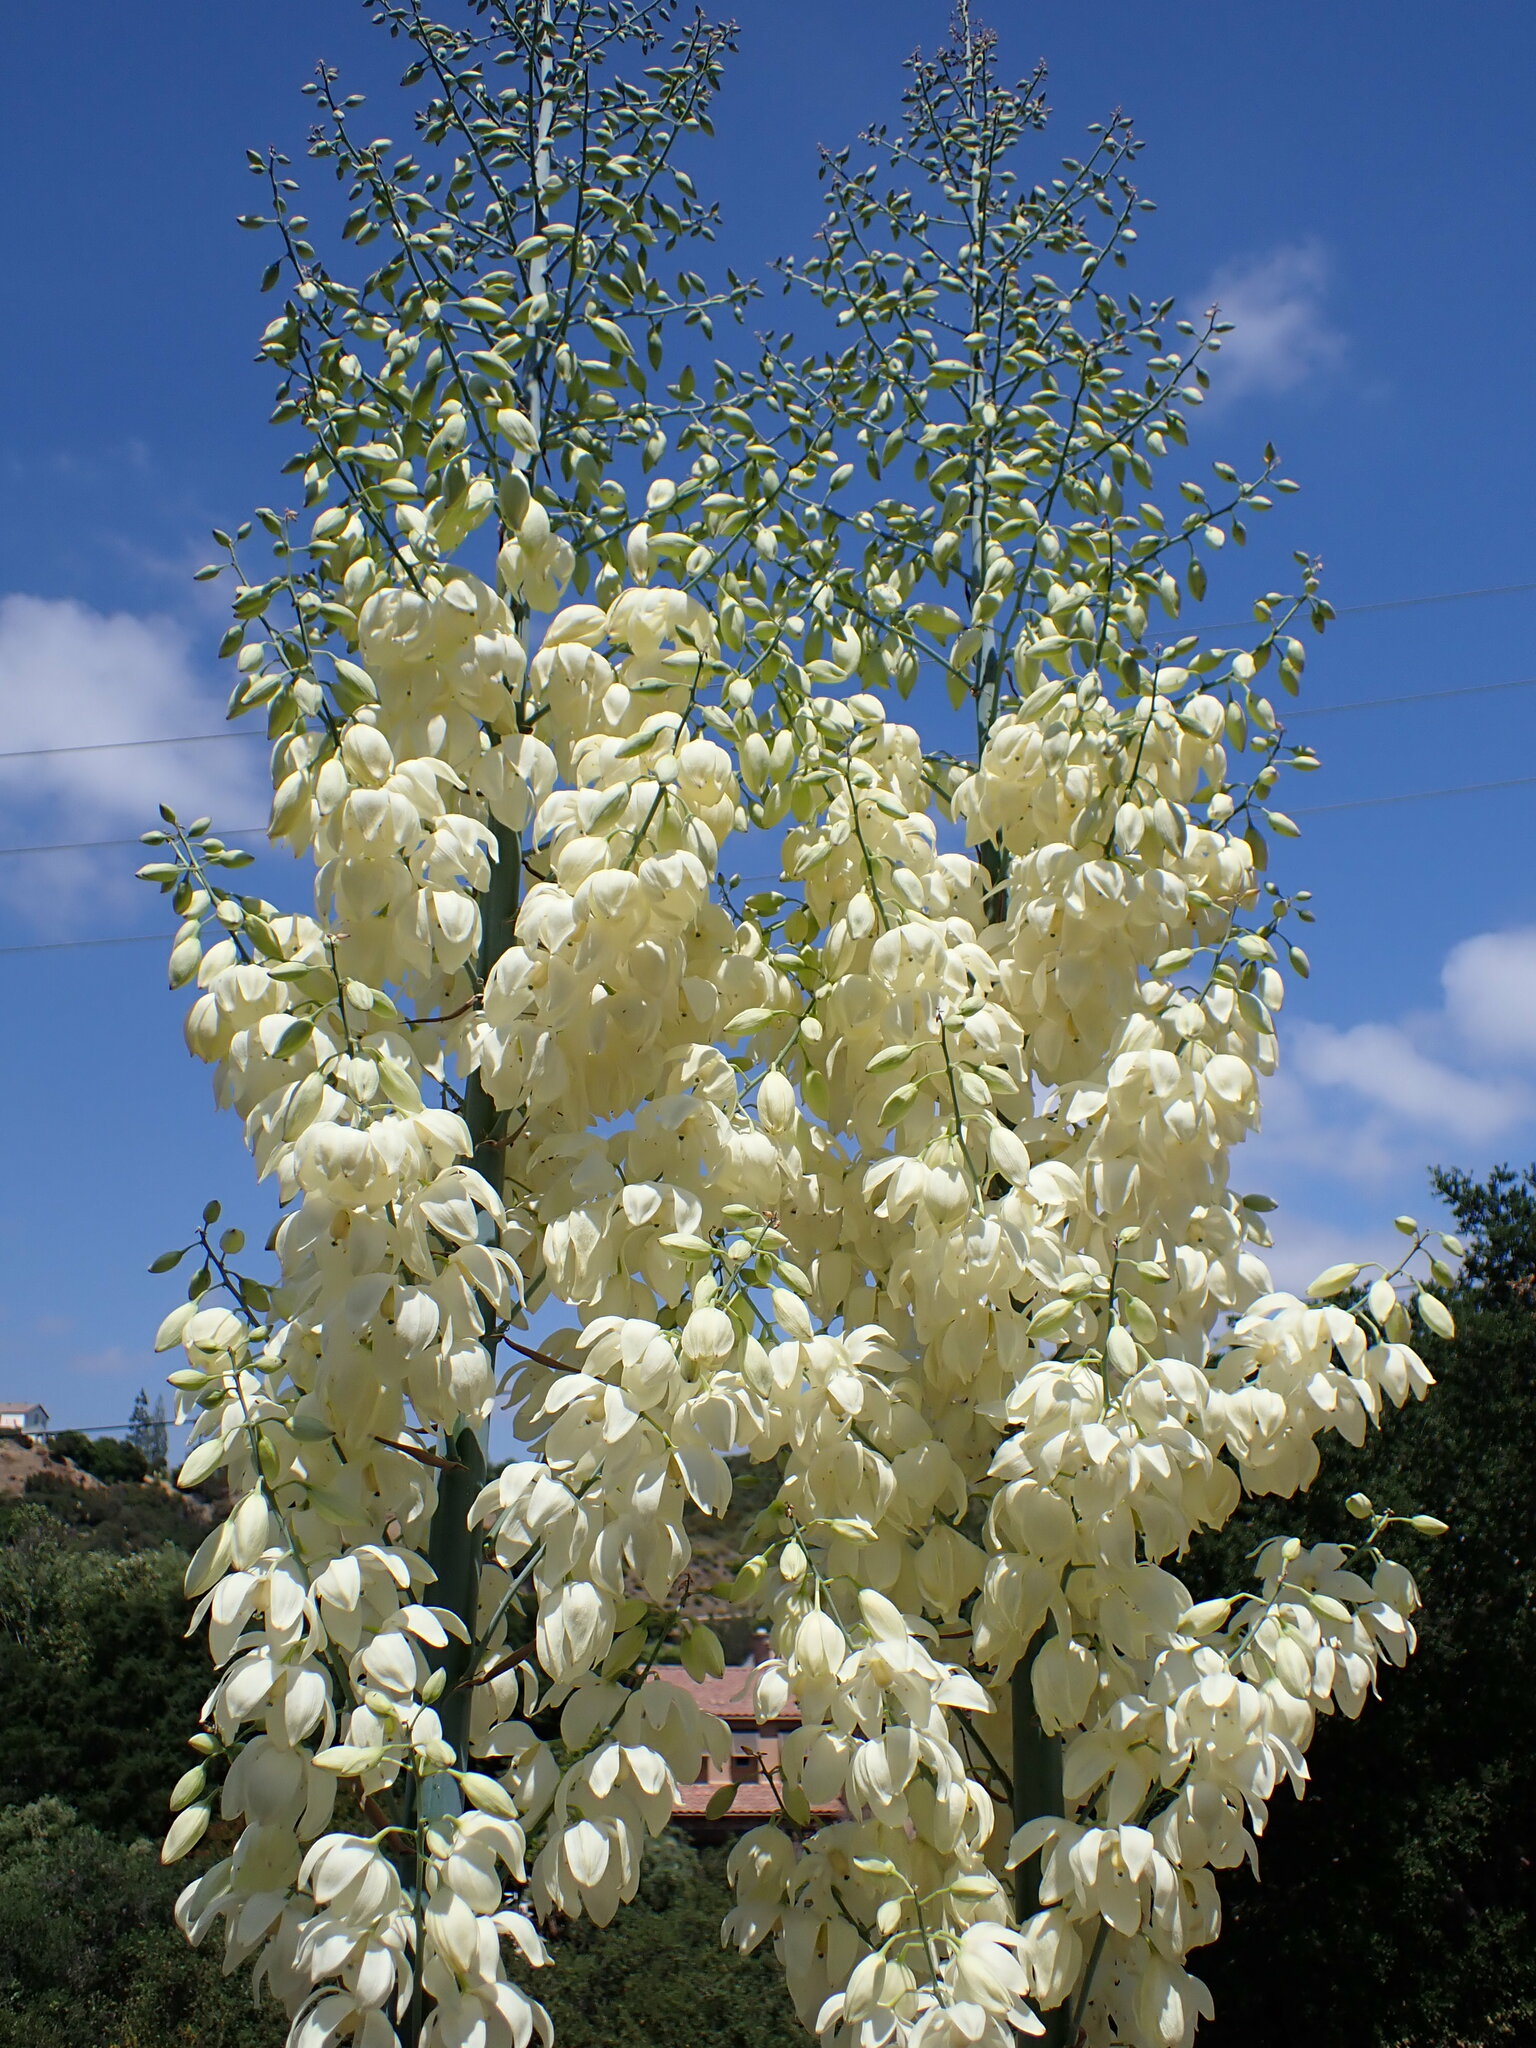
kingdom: Plantae
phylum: Tracheophyta
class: Liliopsida
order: Asparagales
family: Asparagaceae
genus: Hesperoyucca
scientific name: Hesperoyucca whipplei
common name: Our lord's-candle
